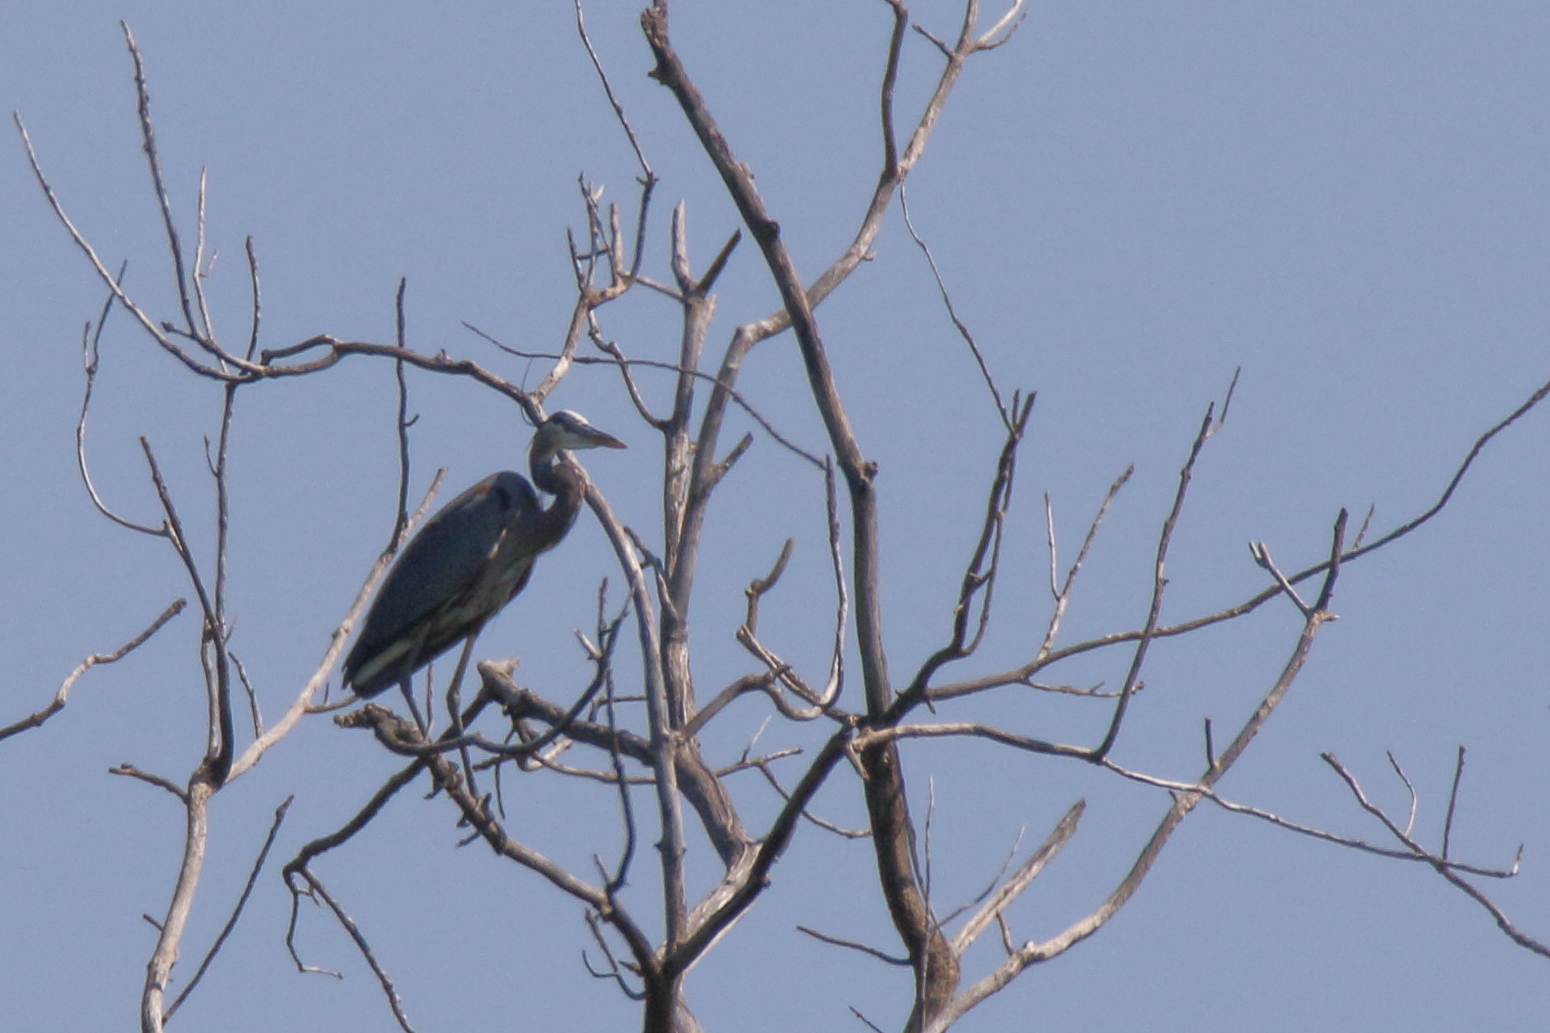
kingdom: Animalia
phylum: Chordata
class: Aves
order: Pelecaniformes
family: Ardeidae
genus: Ardea
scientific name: Ardea herodias
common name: Great blue heron
